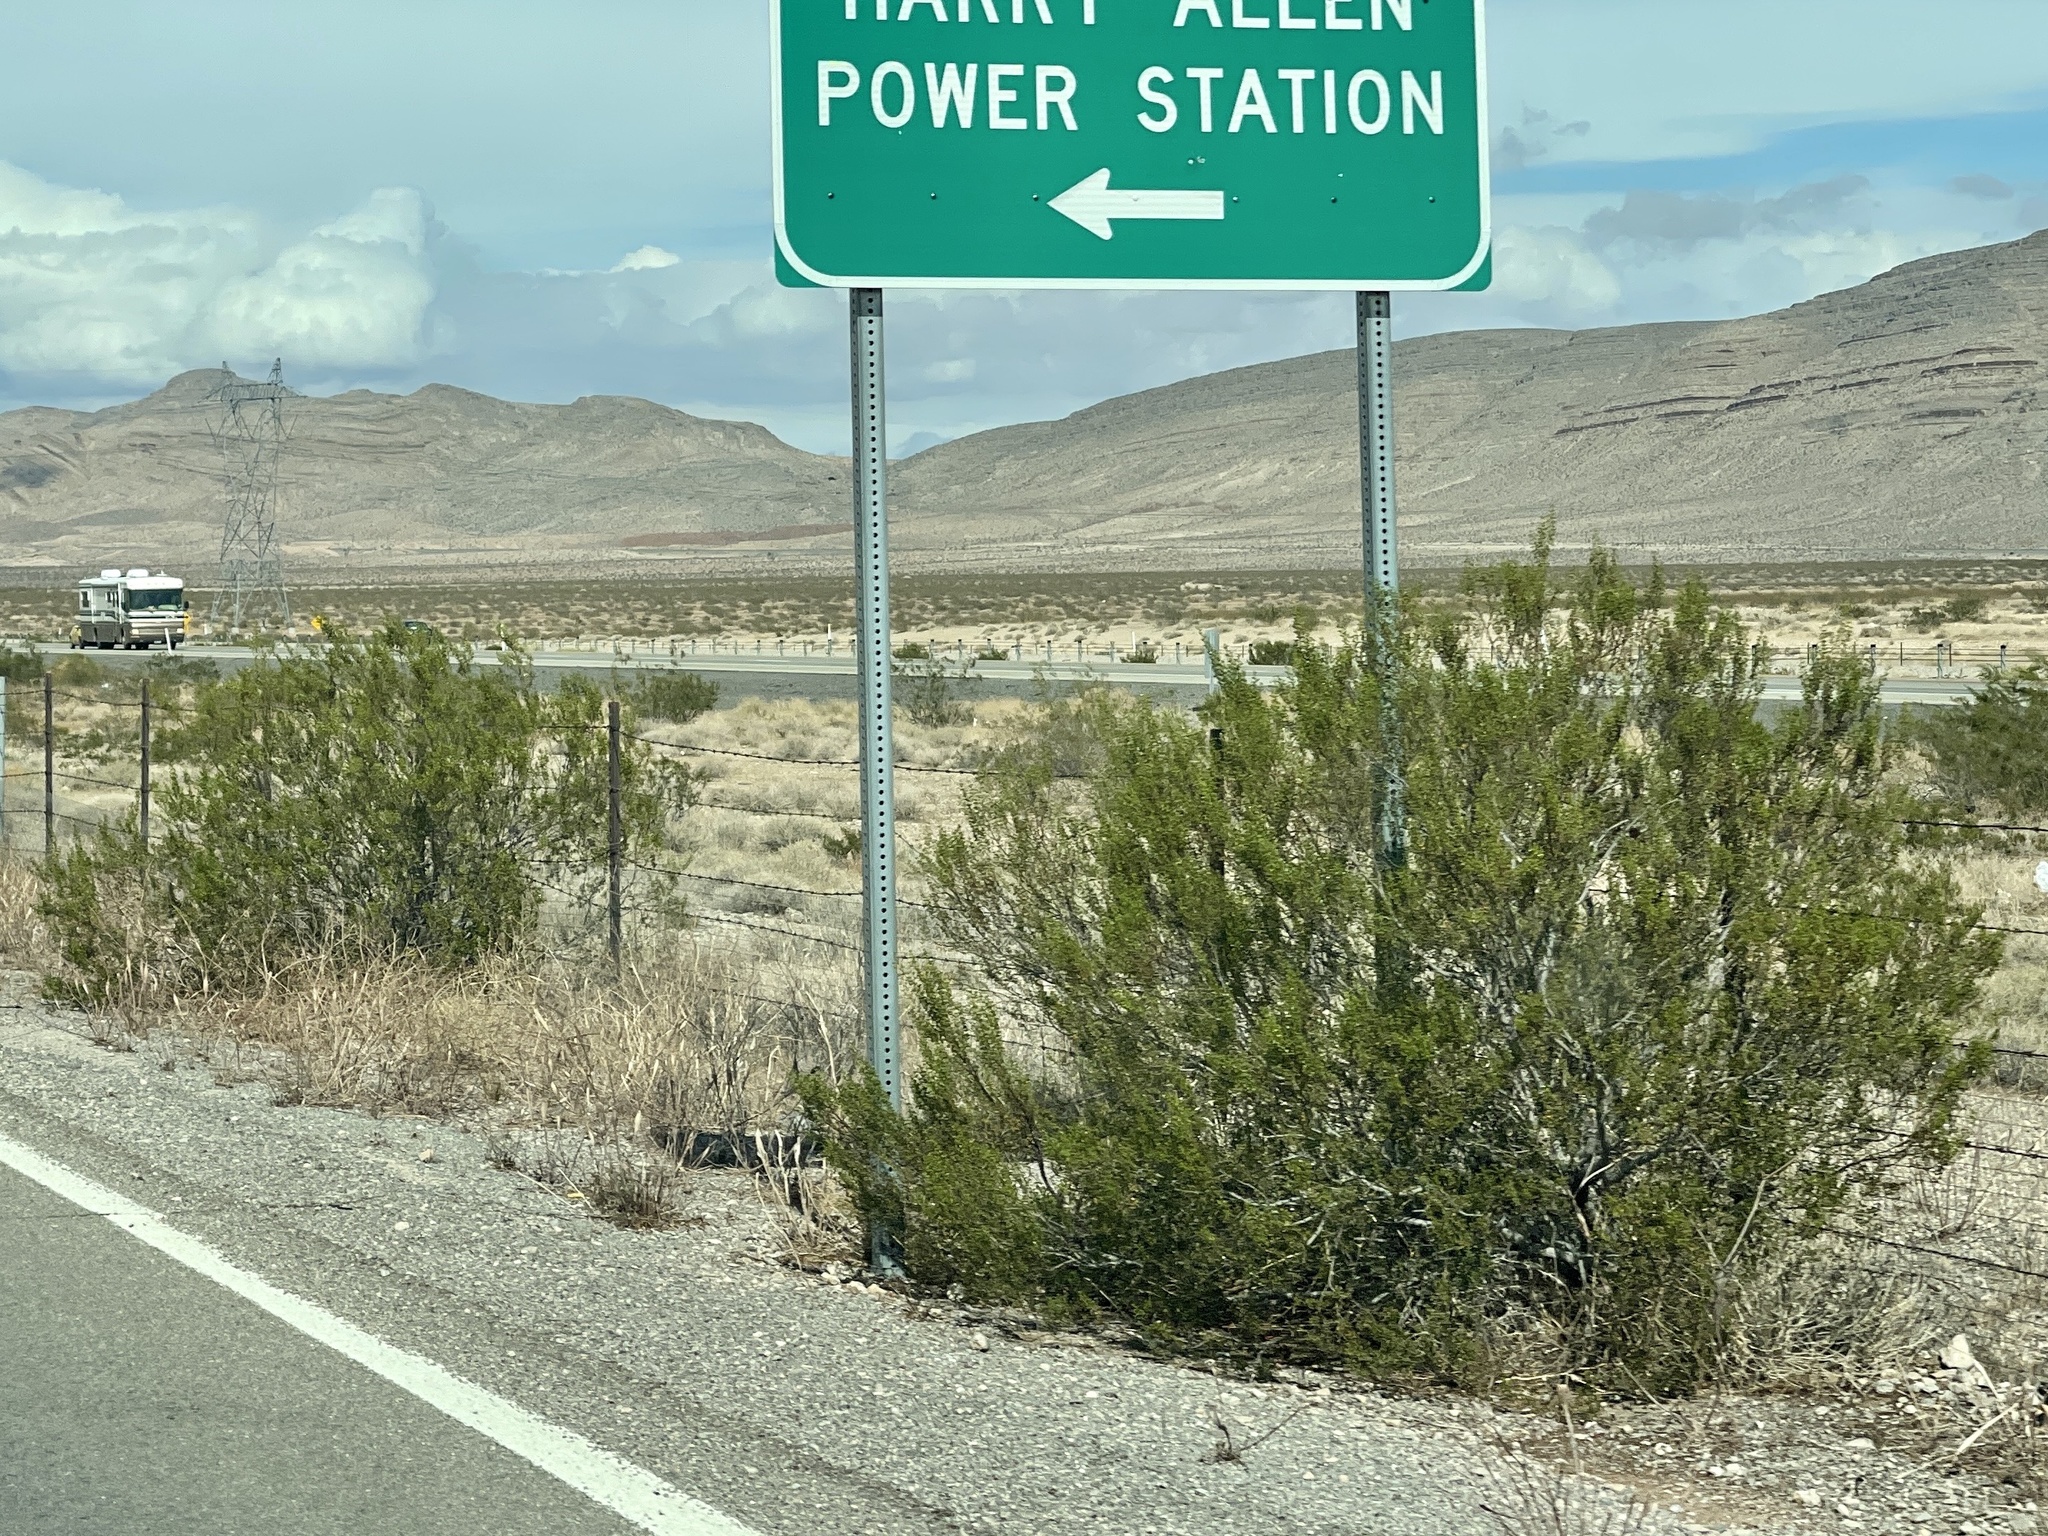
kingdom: Plantae
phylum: Tracheophyta
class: Magnoliopsida
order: Zygophyllales
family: Zygophyllaceae
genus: Larrea
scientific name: Larrea tridentata
